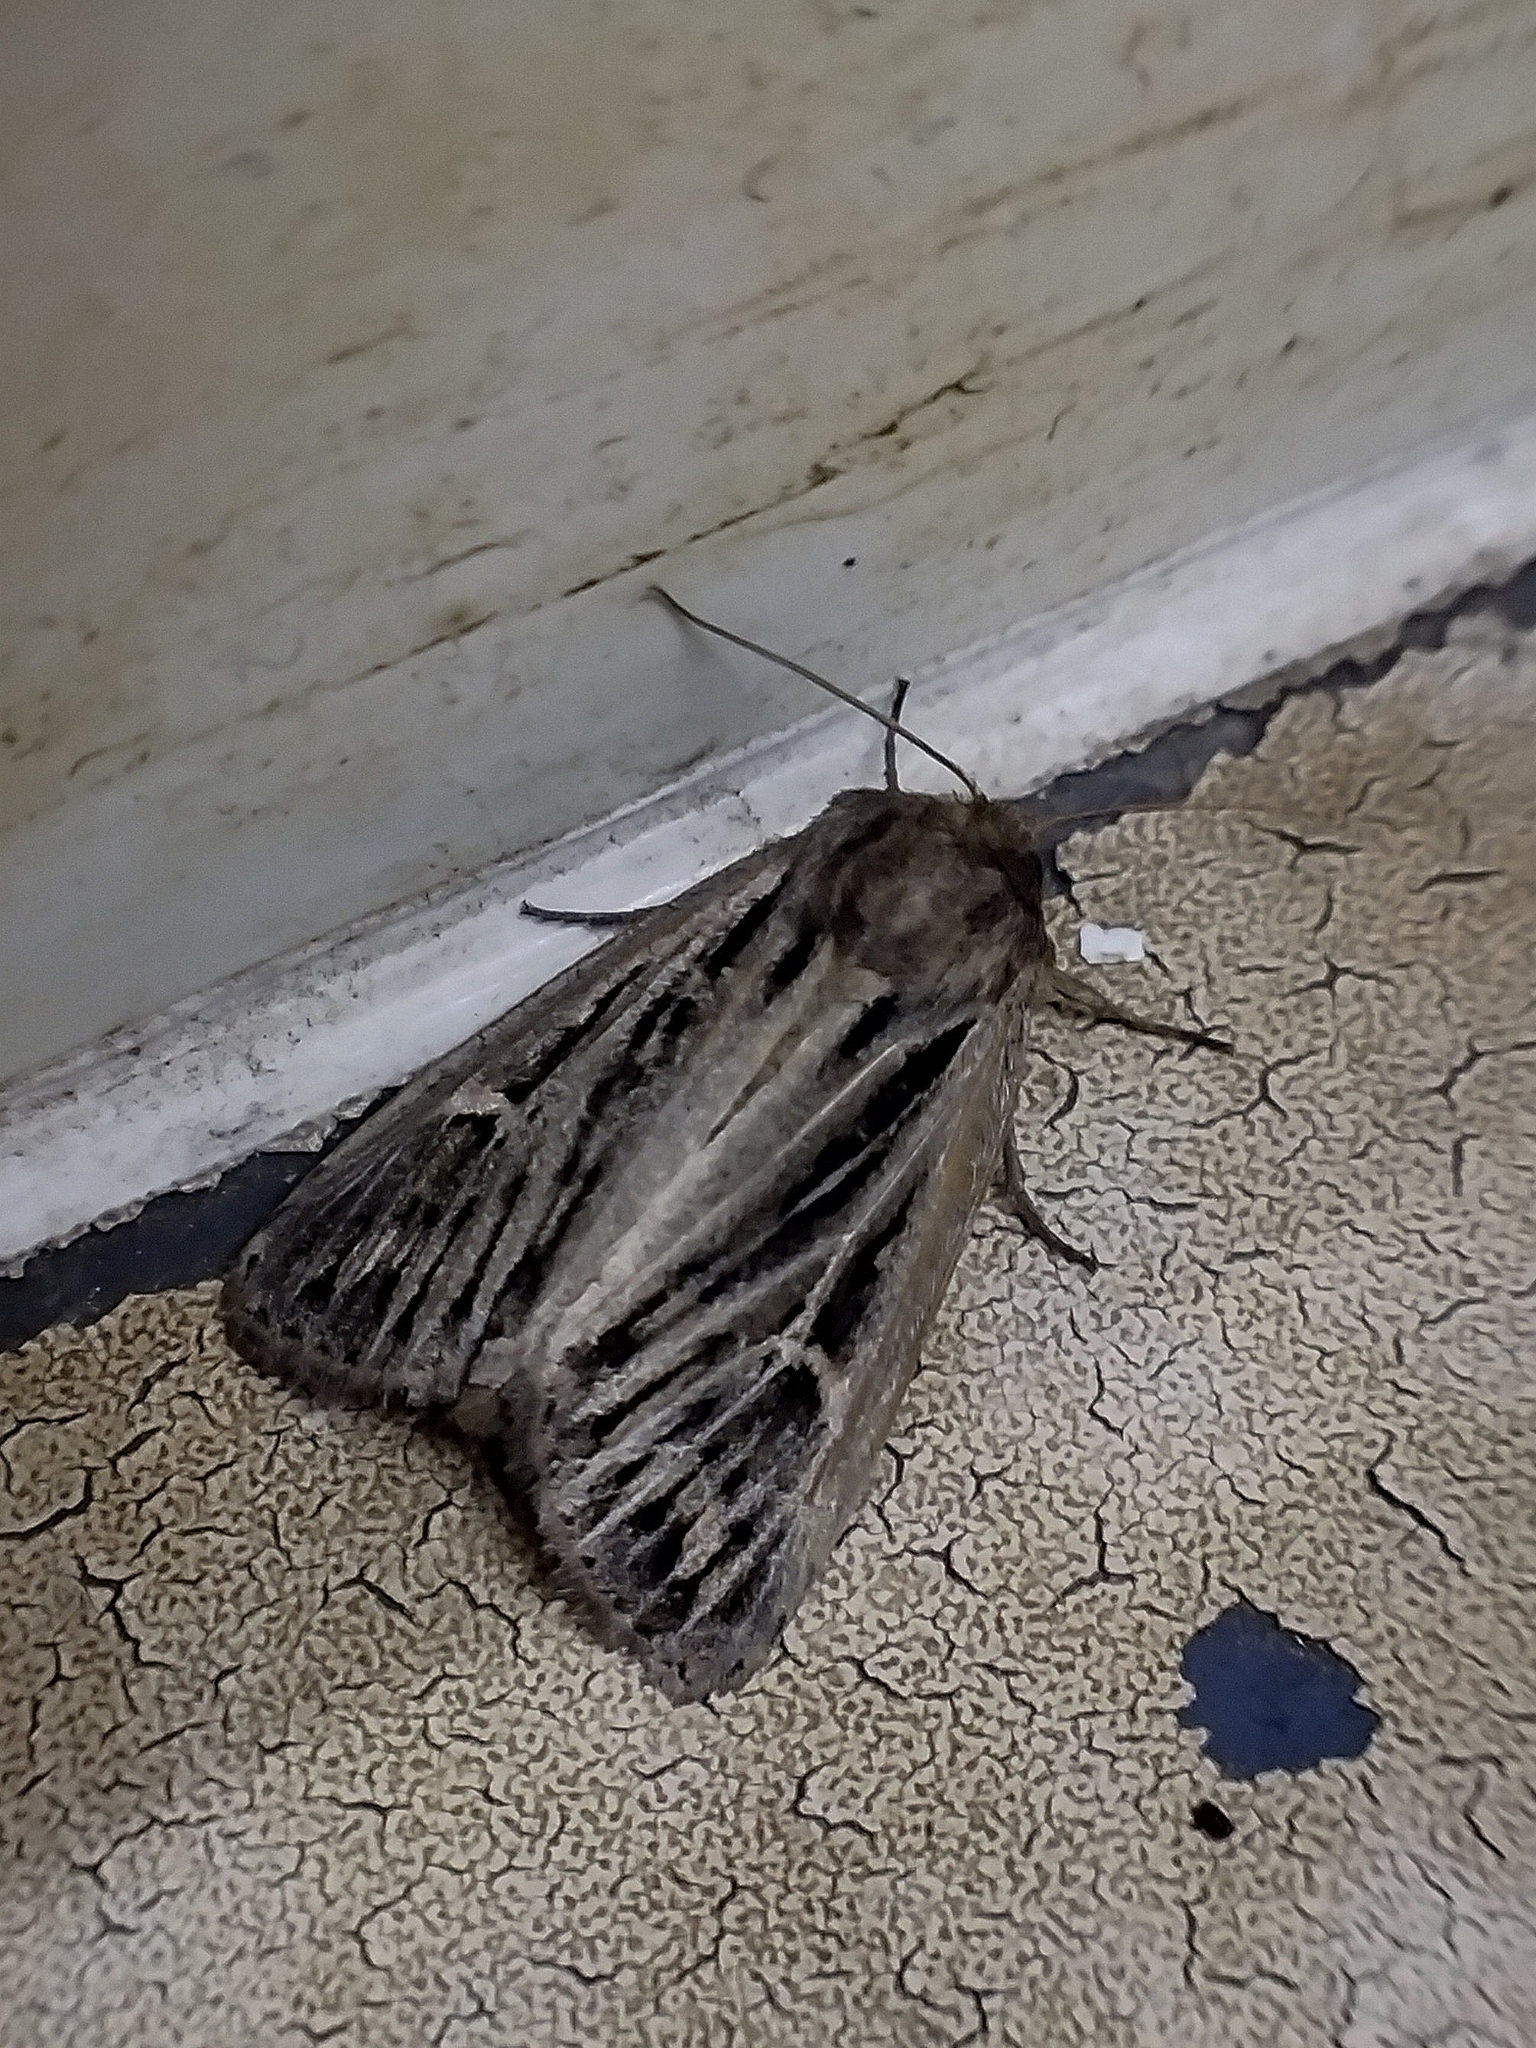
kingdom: Animalia
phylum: Arthropoda
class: Insecta
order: Lepidoptera
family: Noctuidae
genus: Mythimna
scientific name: Mythimna velutina
